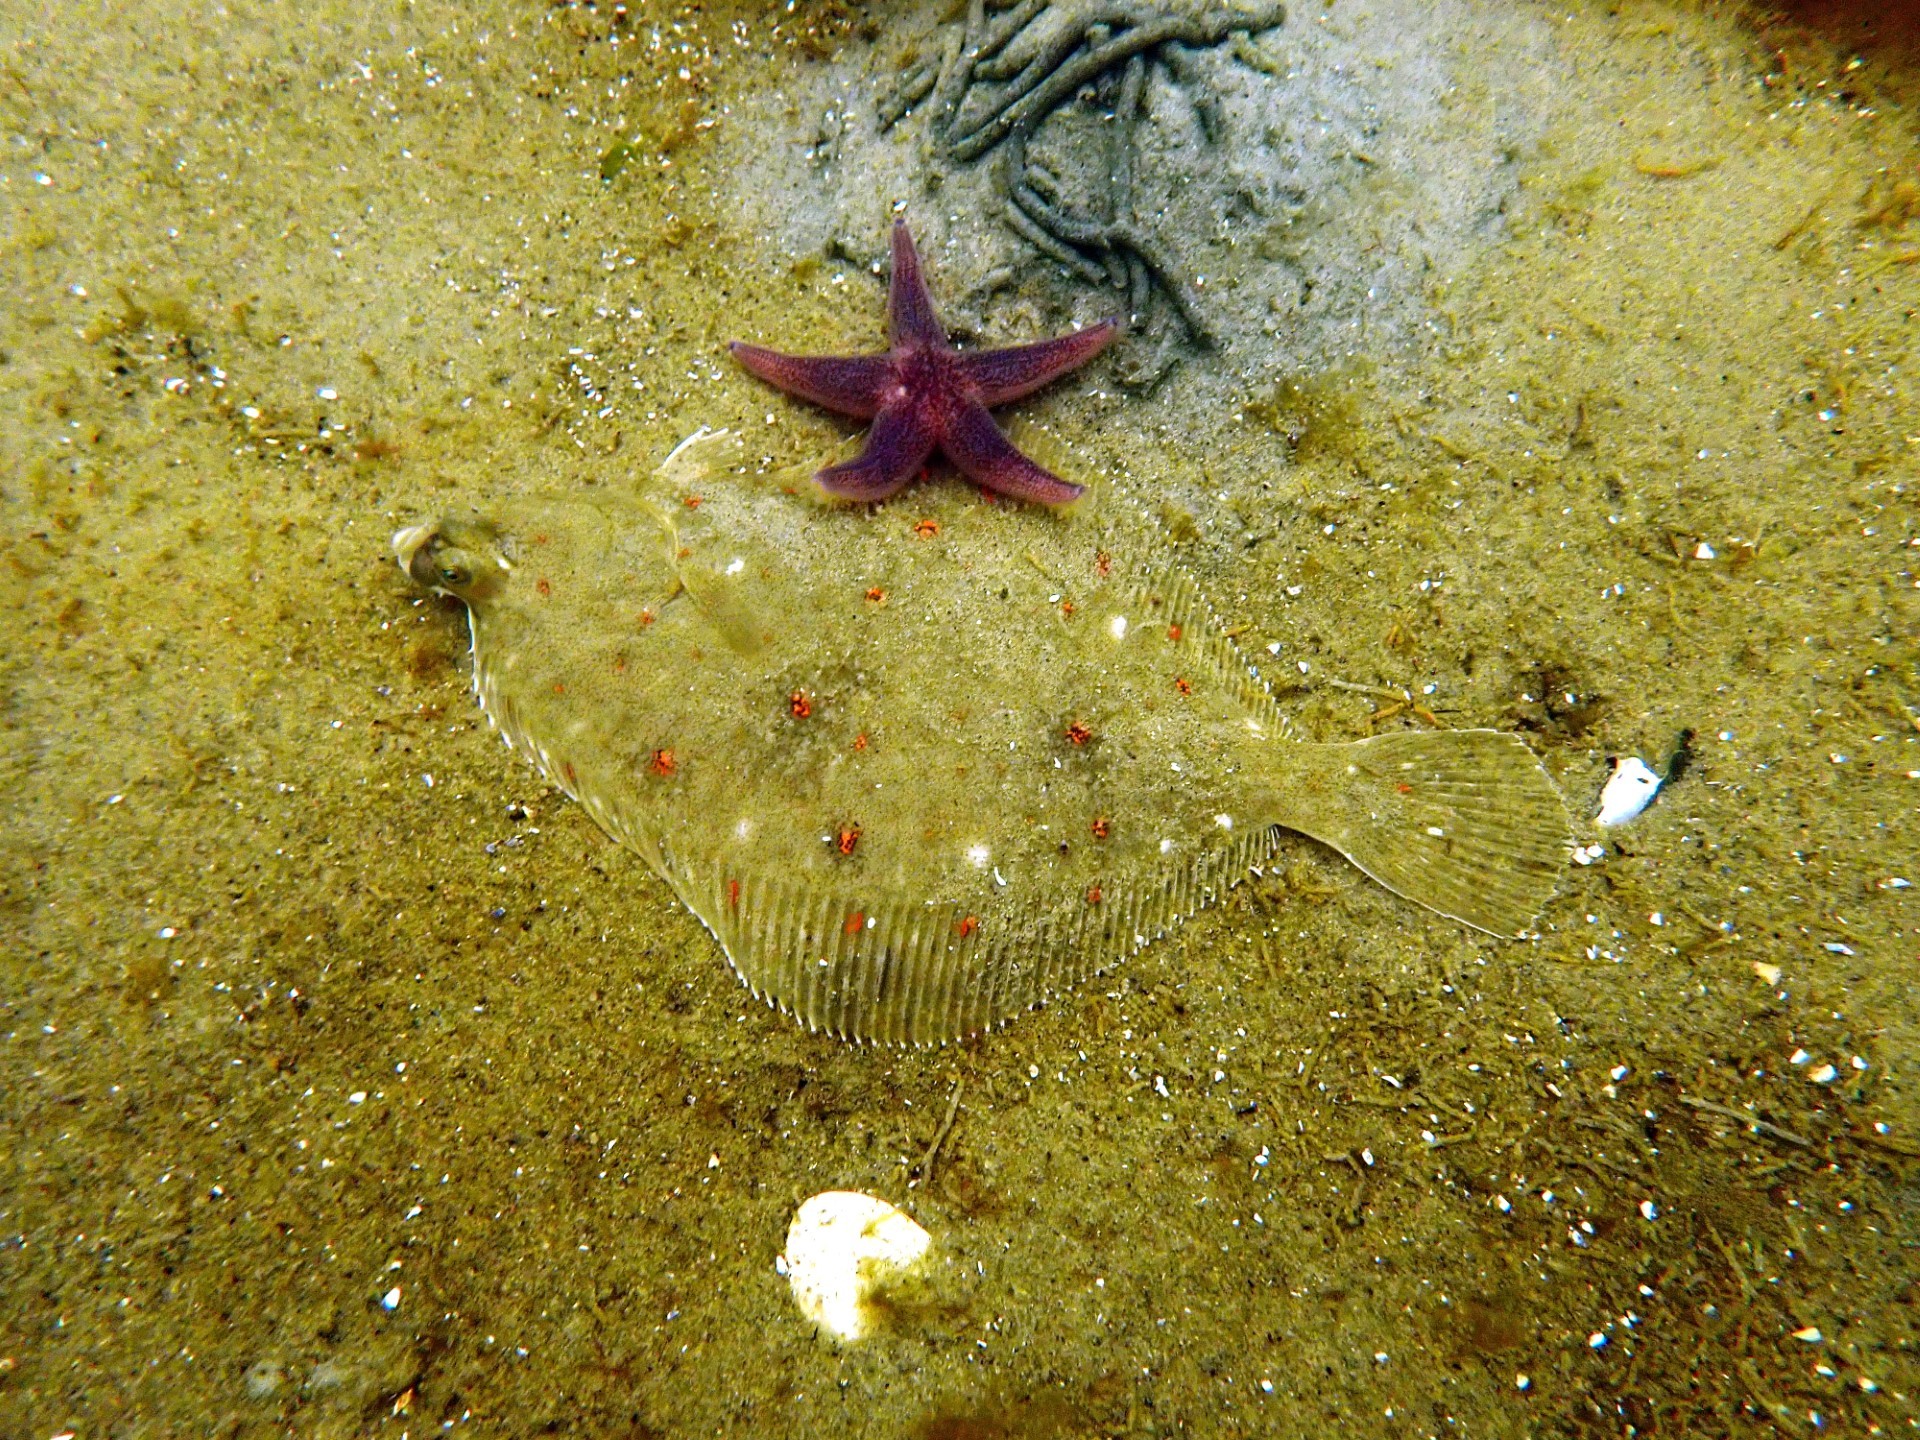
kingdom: Animalia
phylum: Chordata
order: Pleuronectiformes
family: Pleuronectidae
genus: Pleuronectes
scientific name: Pleuronectes platessa
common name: Plaice
